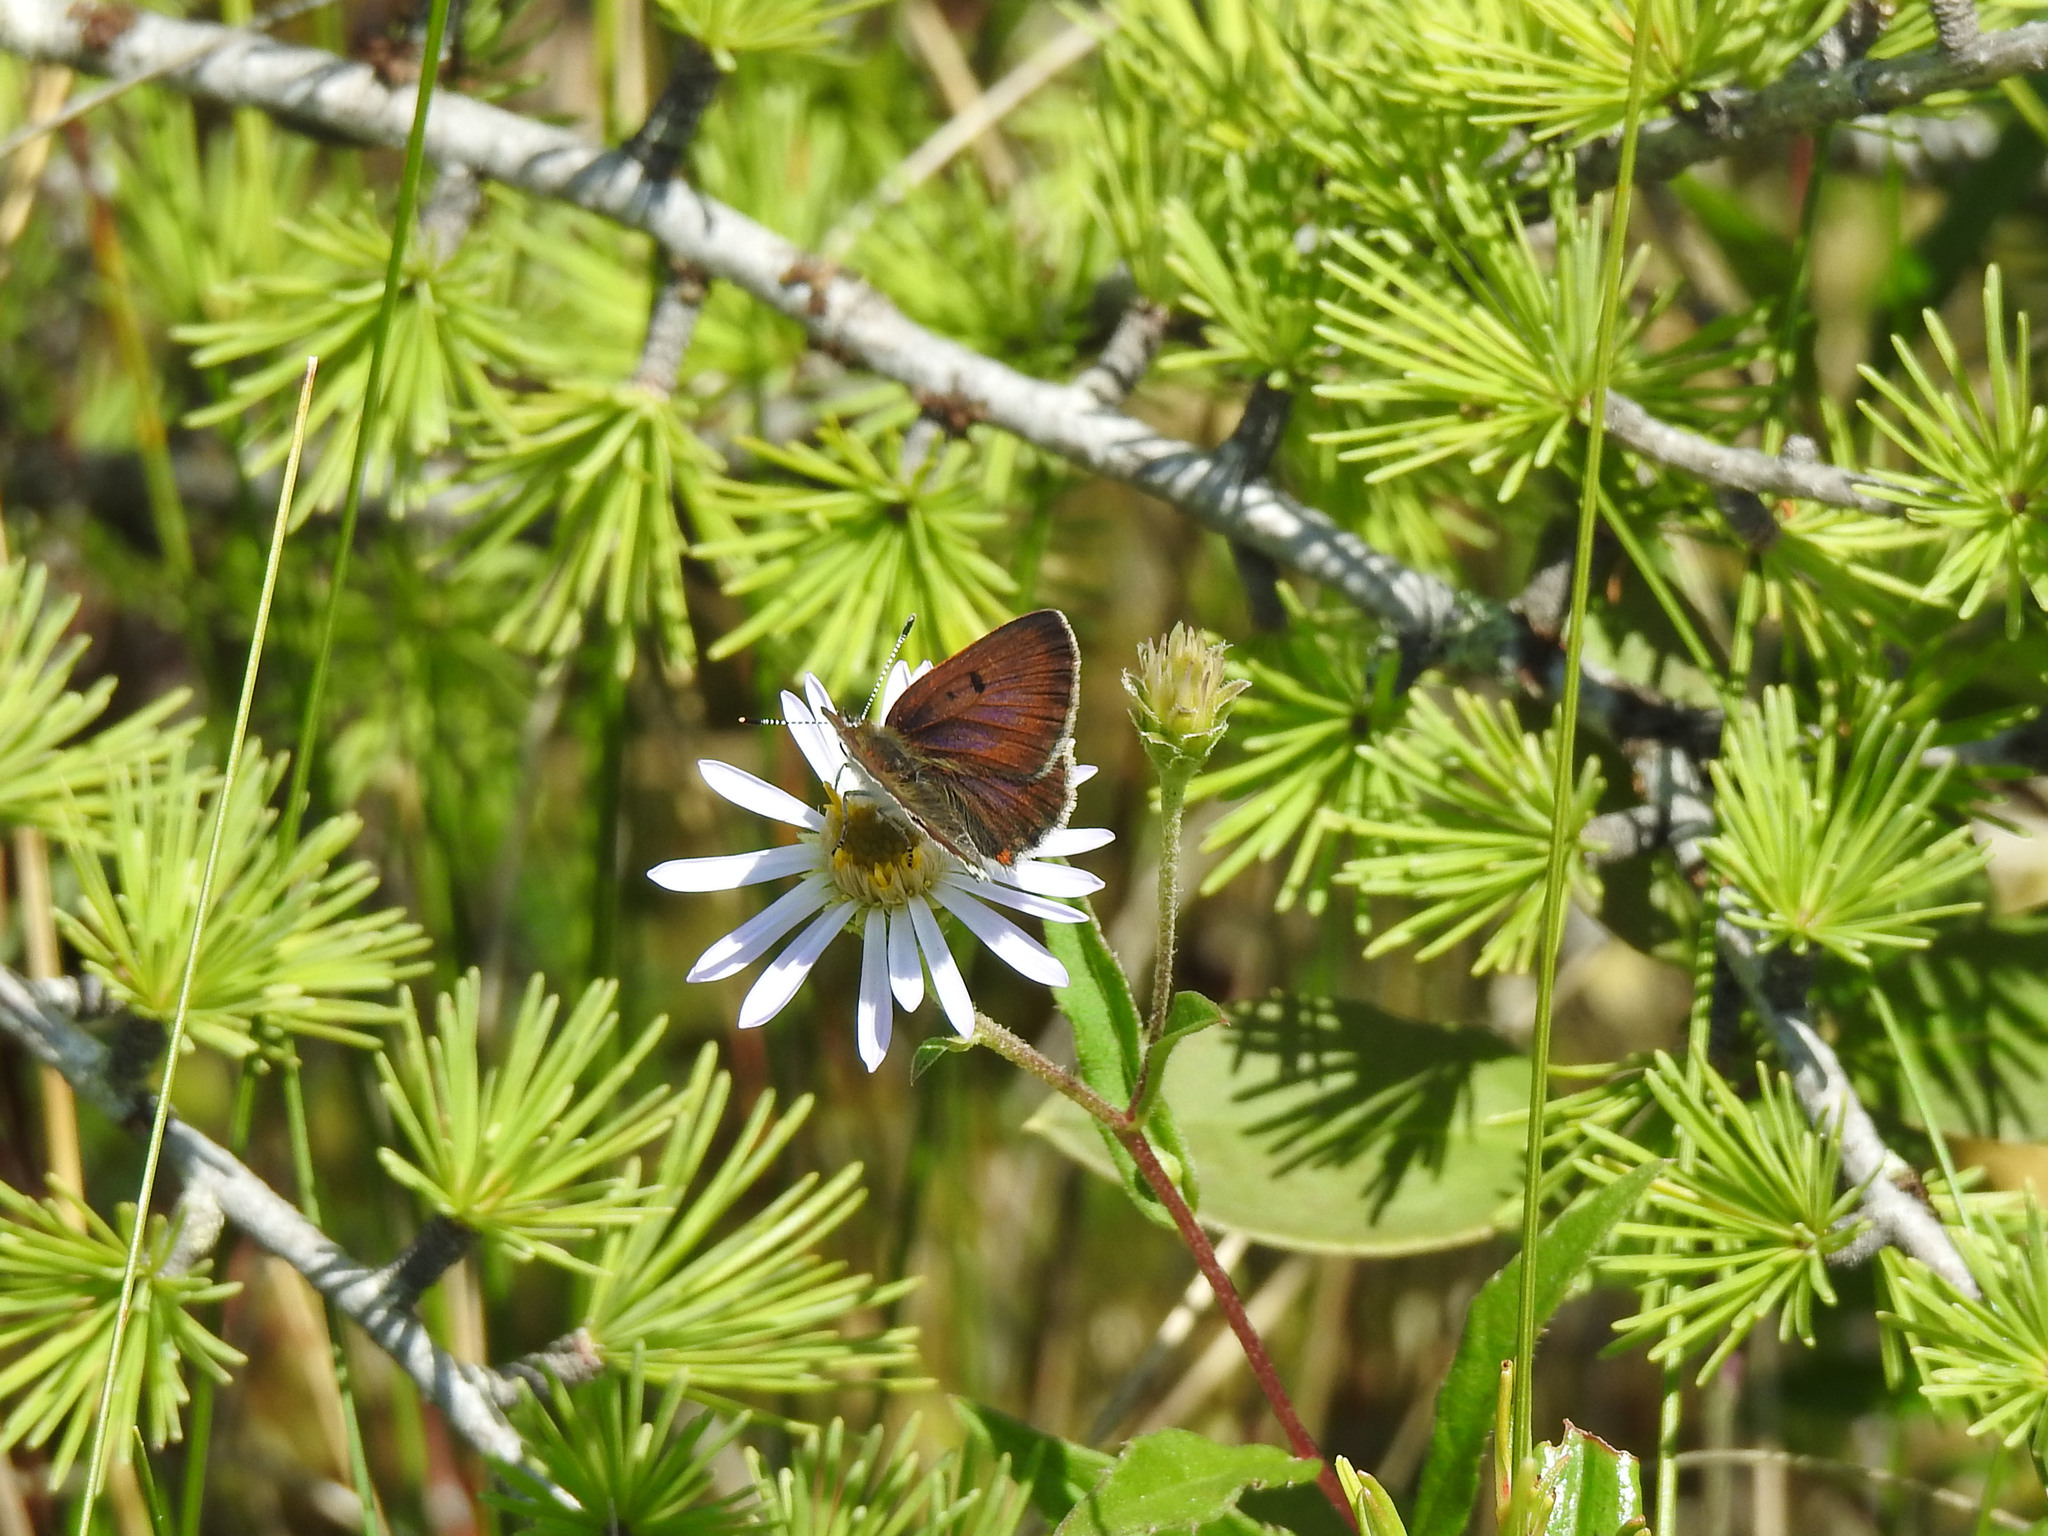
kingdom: Animalia
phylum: Arthropoda
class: Insecta
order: Lepidoptera
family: Lycaenidae
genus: Tharsalea
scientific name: Tharsalea epixanthe
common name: Bog copper
